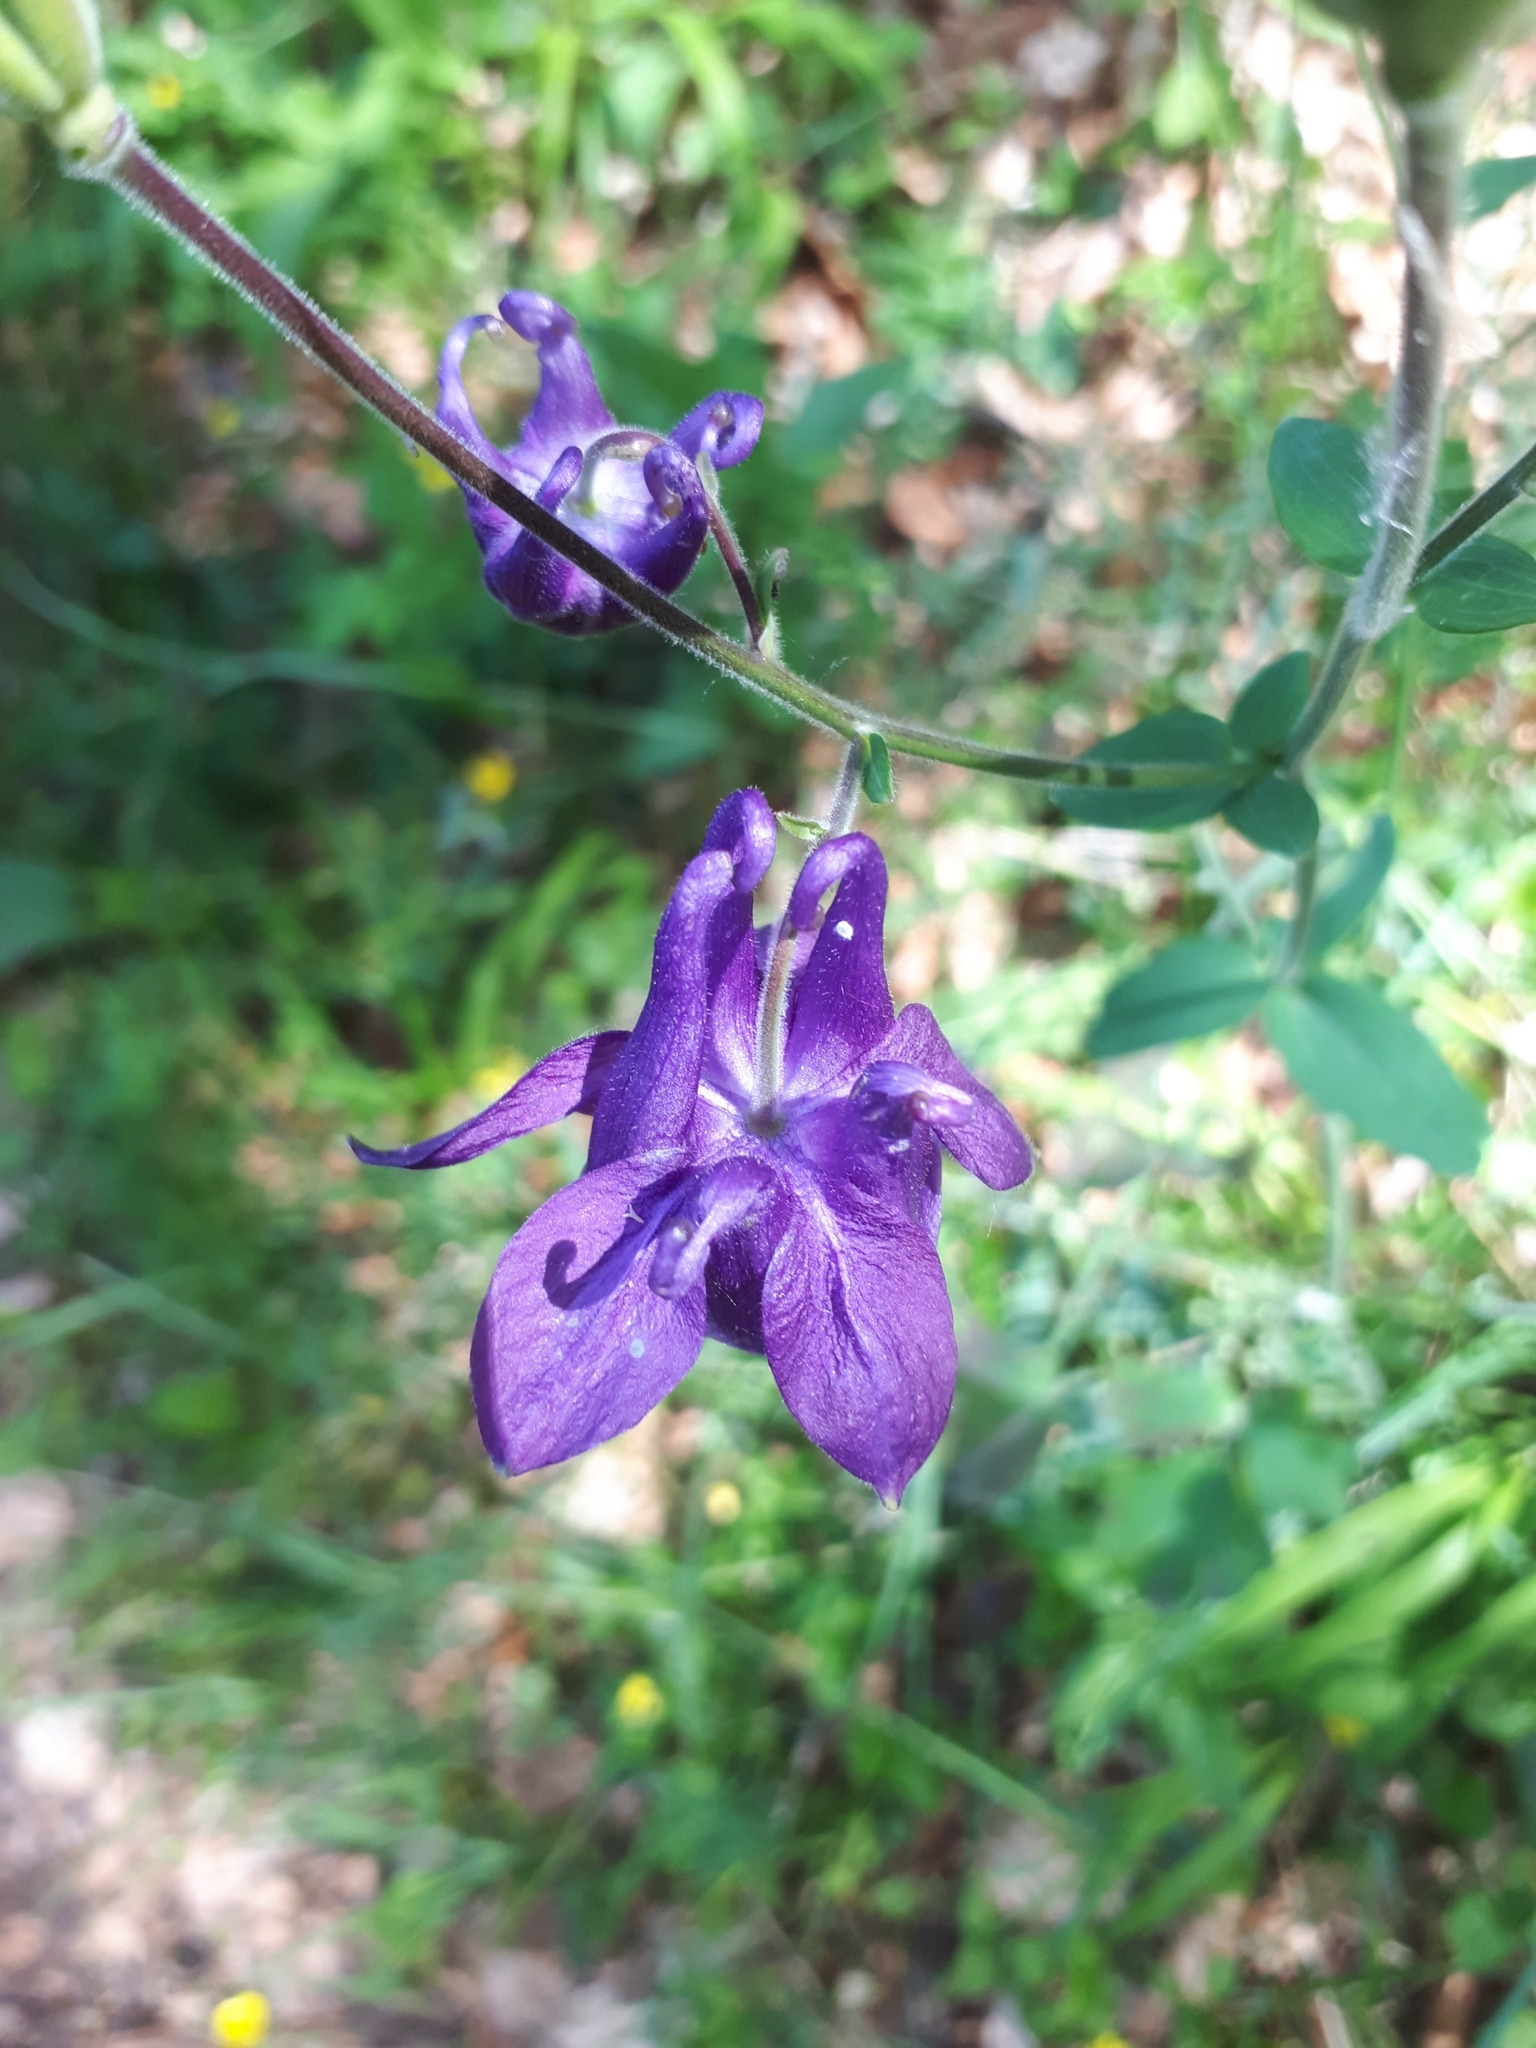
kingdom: Plantae
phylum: Tracheophyta
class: Magnoliopsida
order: Ranunculales
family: Ranunculaceae
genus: Aquilegia
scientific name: Aquilegia vulgaris
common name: Columbine
